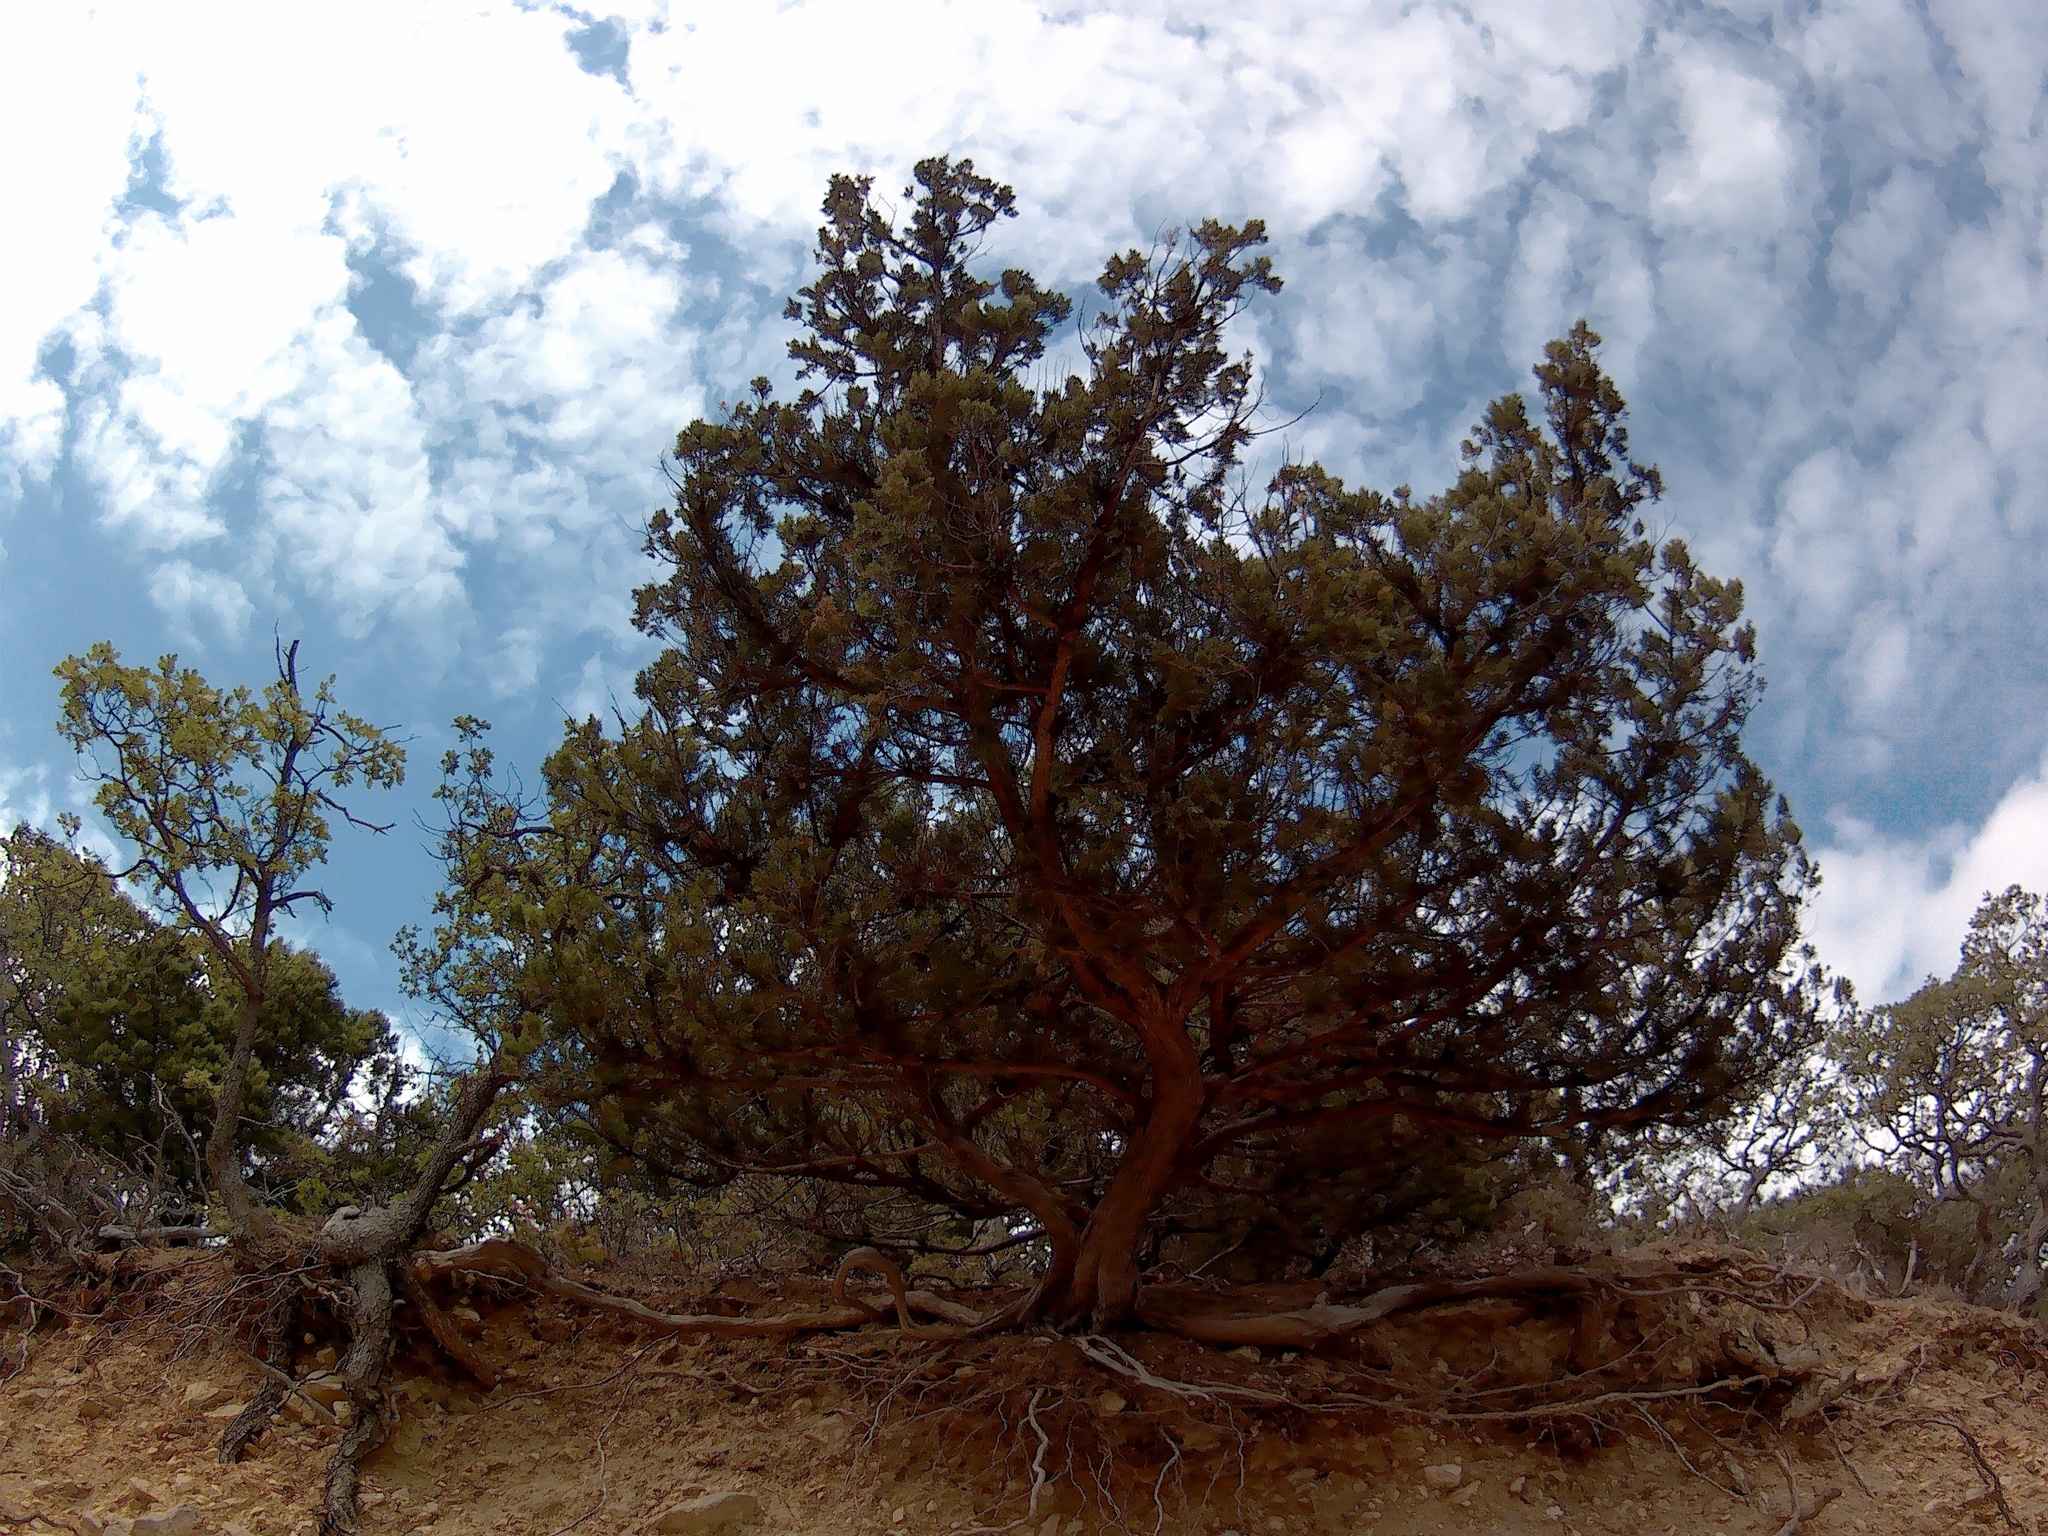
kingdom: Plantae
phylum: Tracheophyta
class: Pinopsida
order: Pinales
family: Cupressaceae
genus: Juniperus
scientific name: Juniperus excelsa
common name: Crimean juniper
